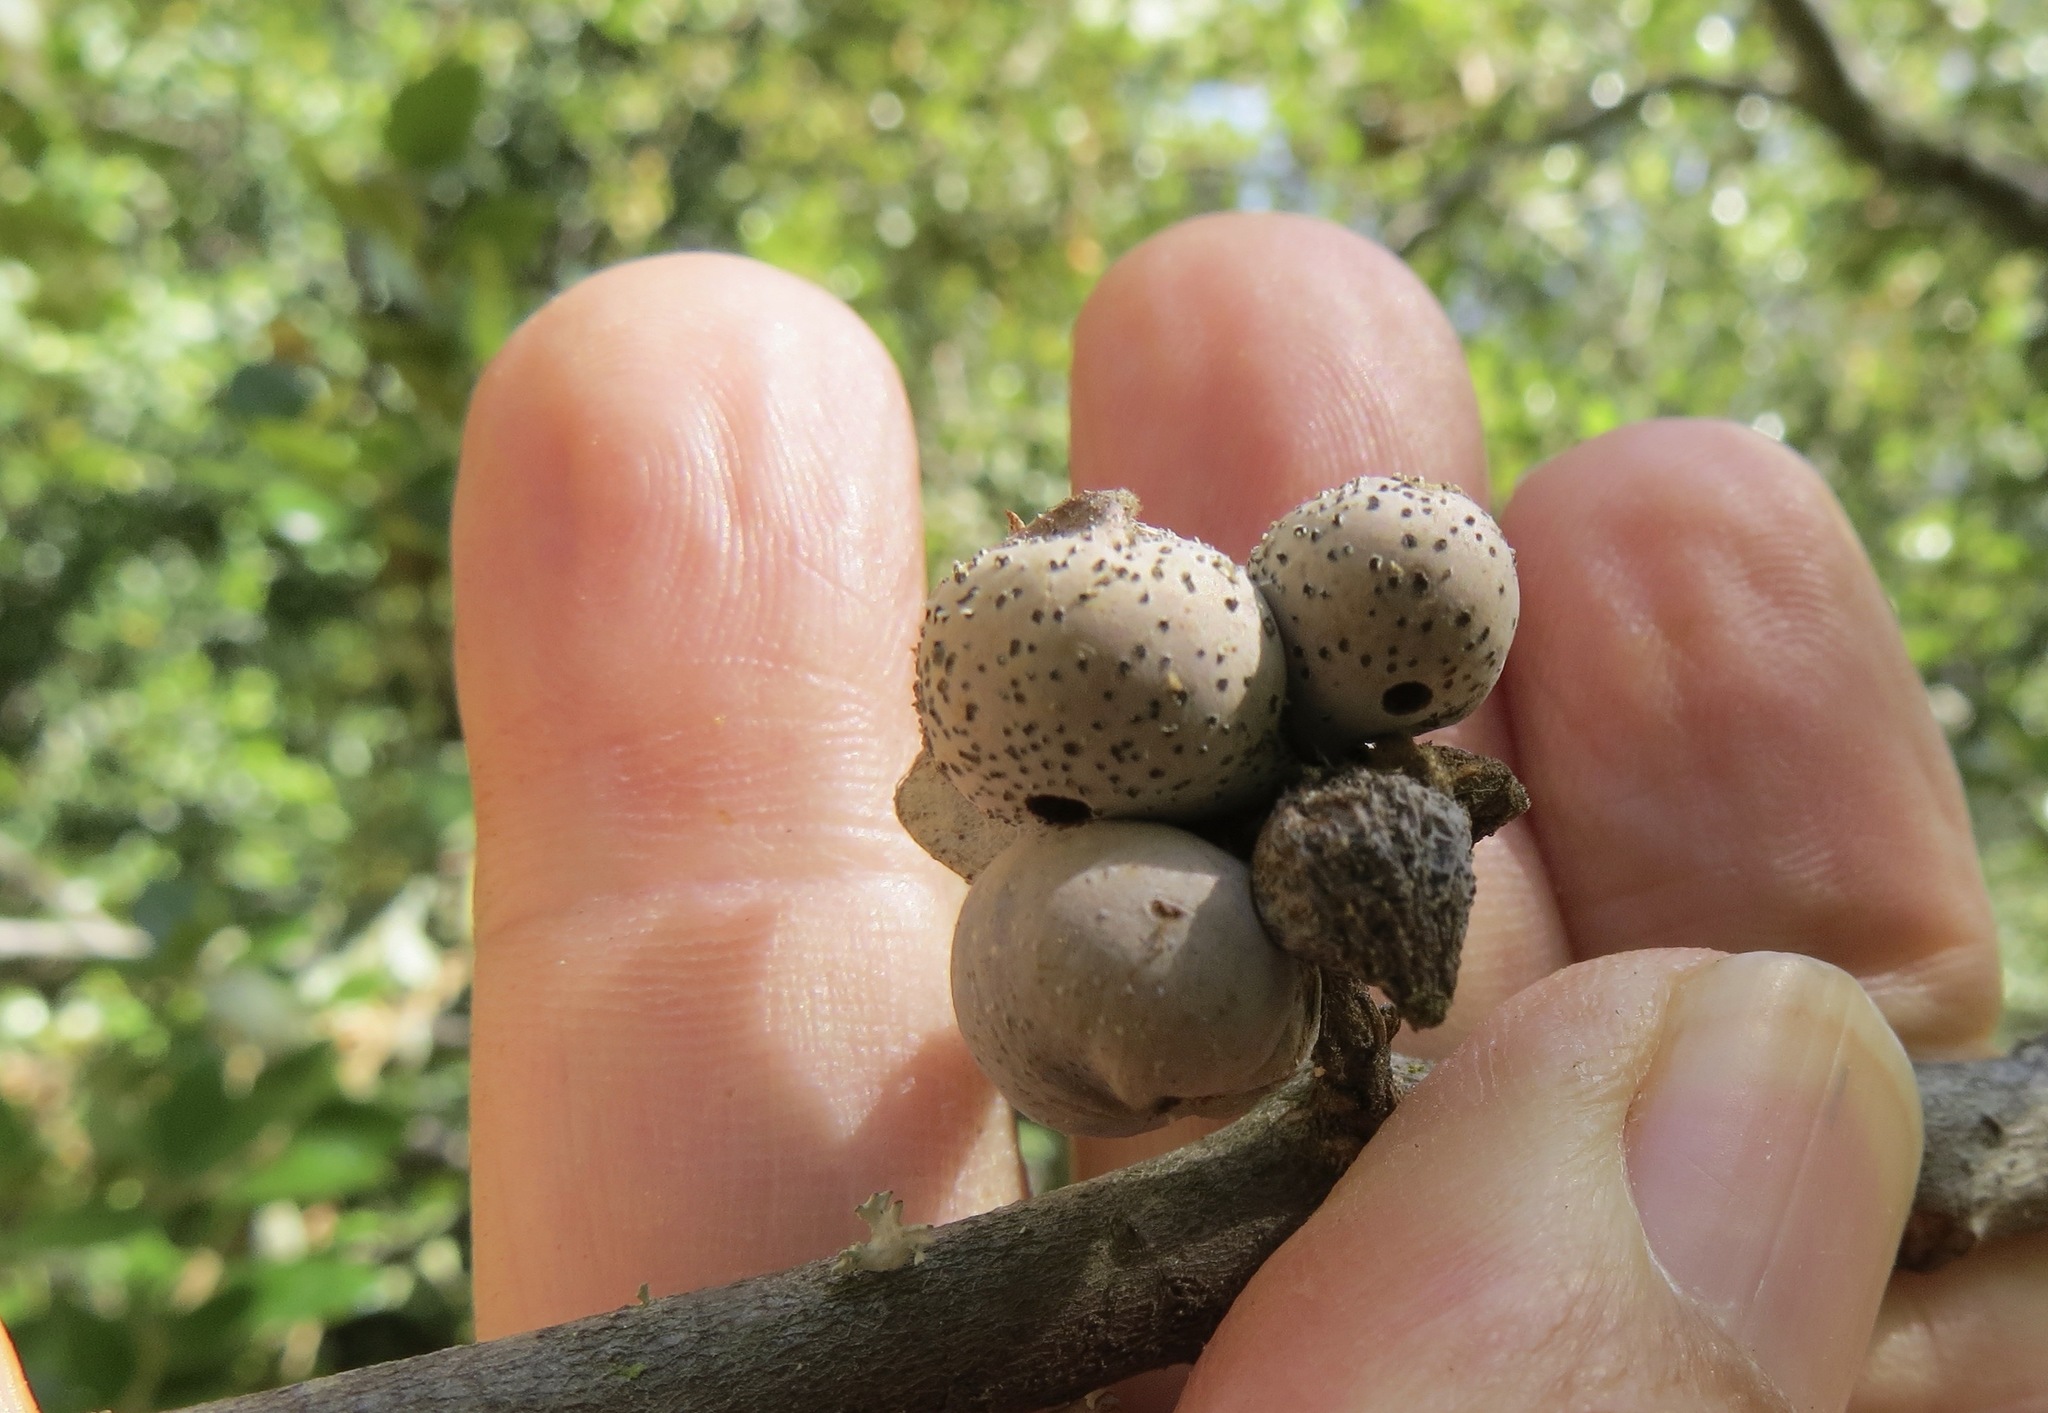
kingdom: Animalia
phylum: Arthropoda
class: Insecta
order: Hymenoptera
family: Cynipidae
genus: Heteroecus
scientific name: Heteroecus
